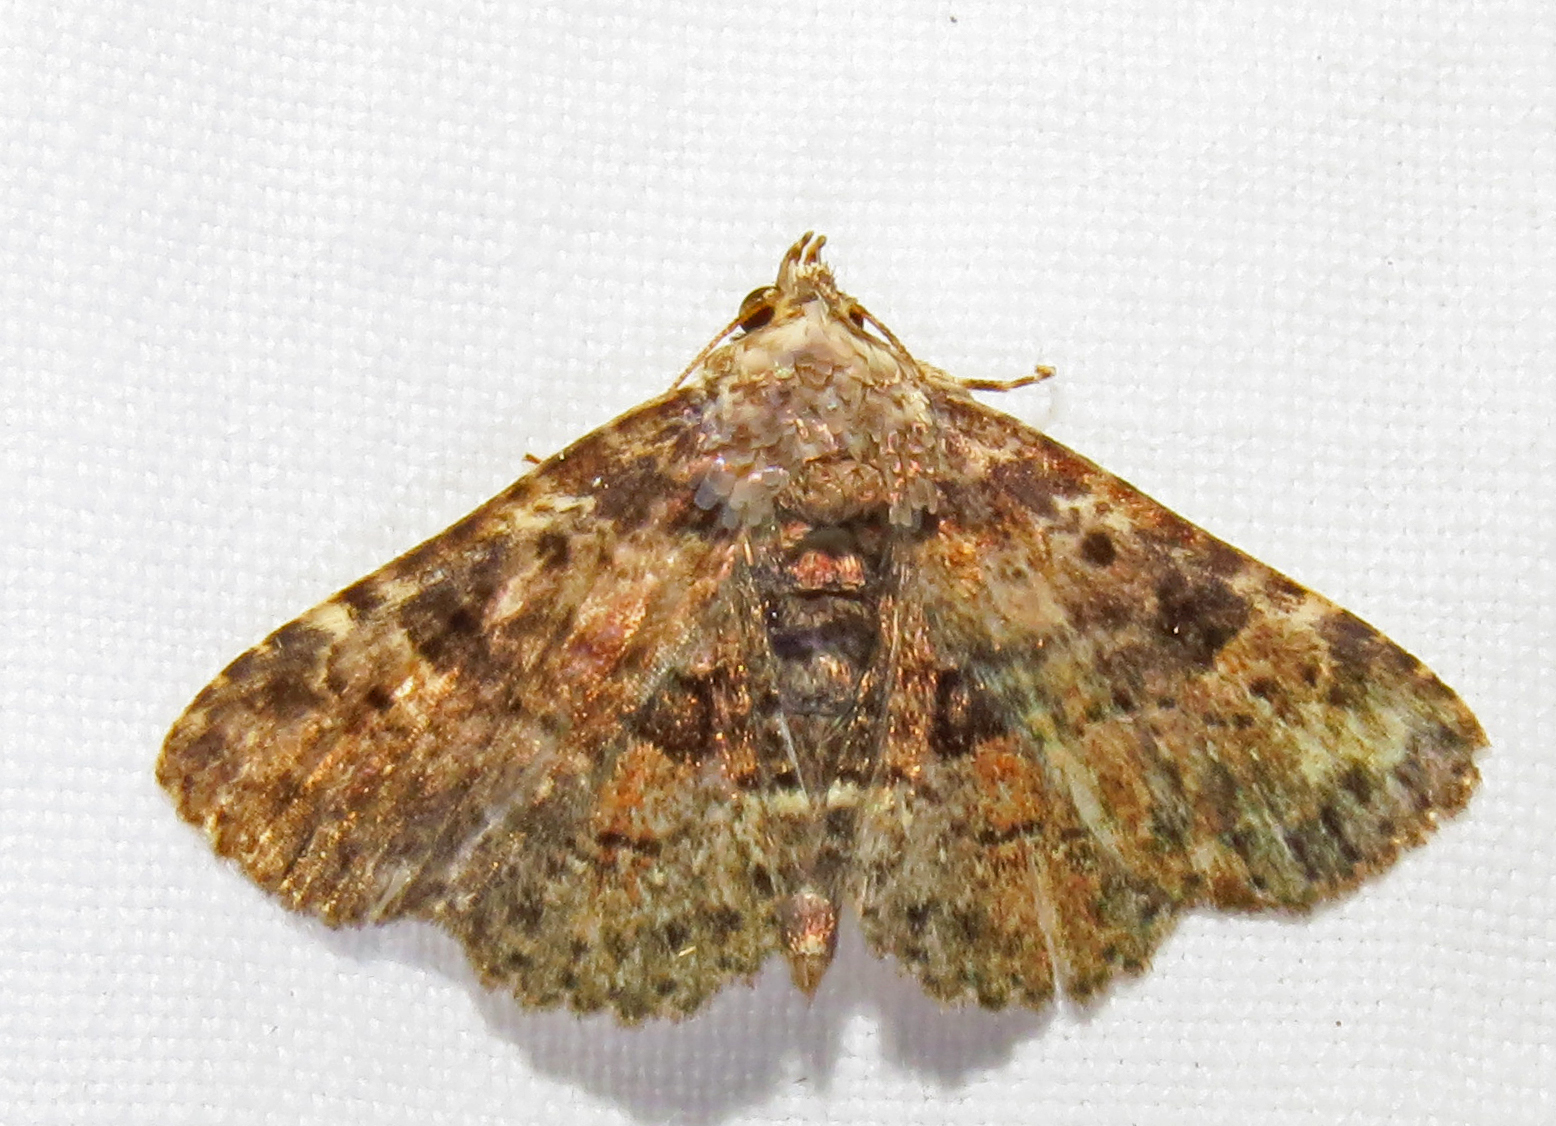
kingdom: Animalia
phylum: Arthropoda
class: Insecta
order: Lepidoptera
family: Erebidae
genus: Metalectra
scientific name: Metalectra discalis
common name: Common fungus moth
